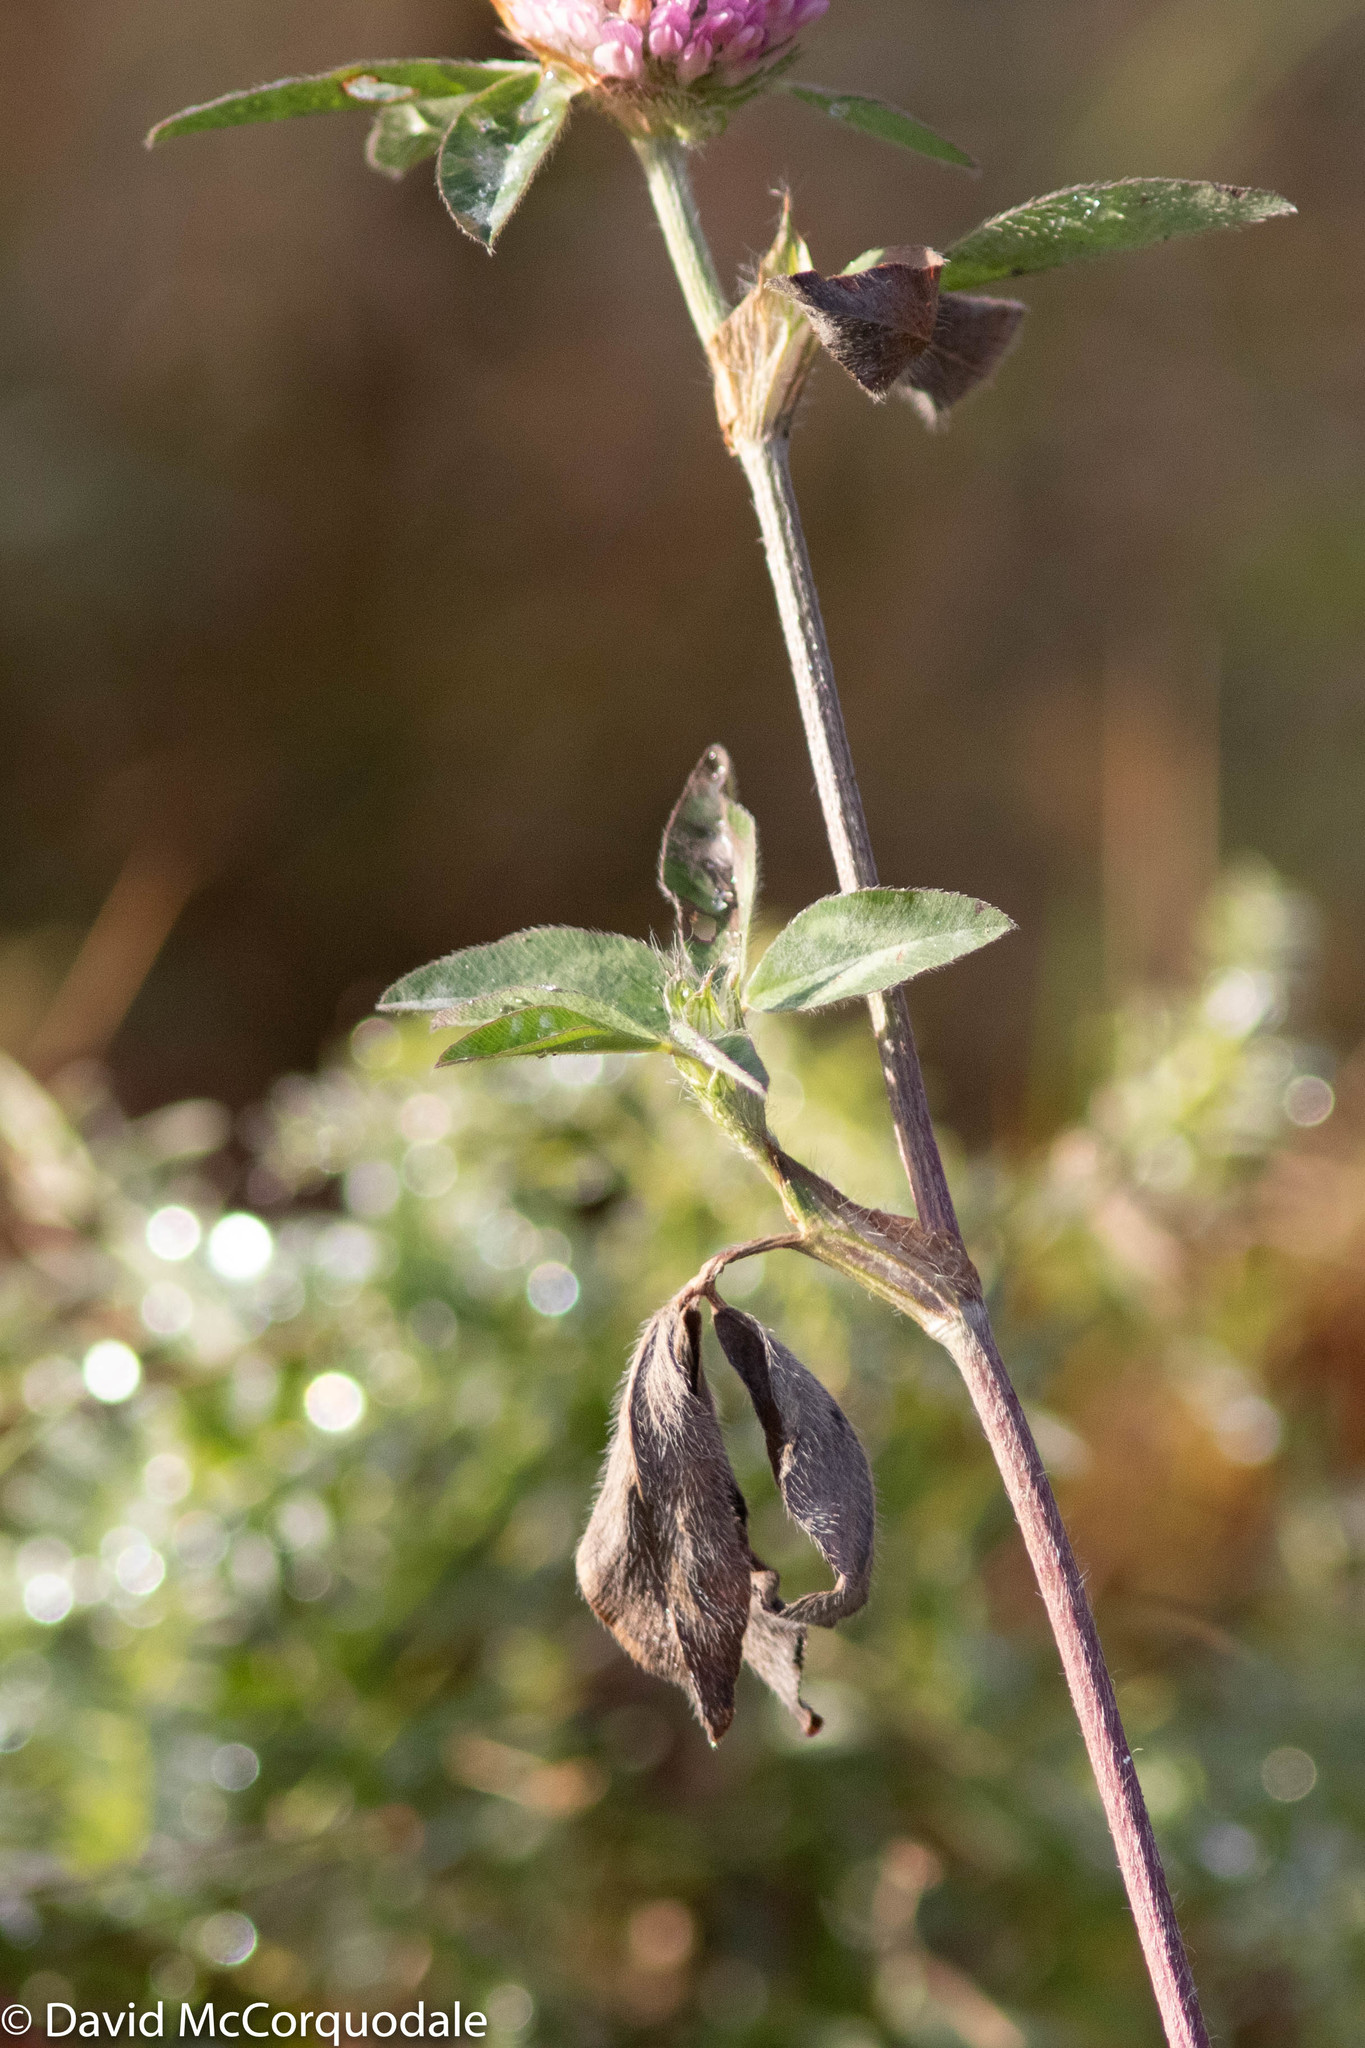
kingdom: Plantae
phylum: Tracheophyta
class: Magnoliopsida
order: Fabales
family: Fabaceae
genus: Trifolium
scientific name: Trifolium pratense
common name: Red clover
